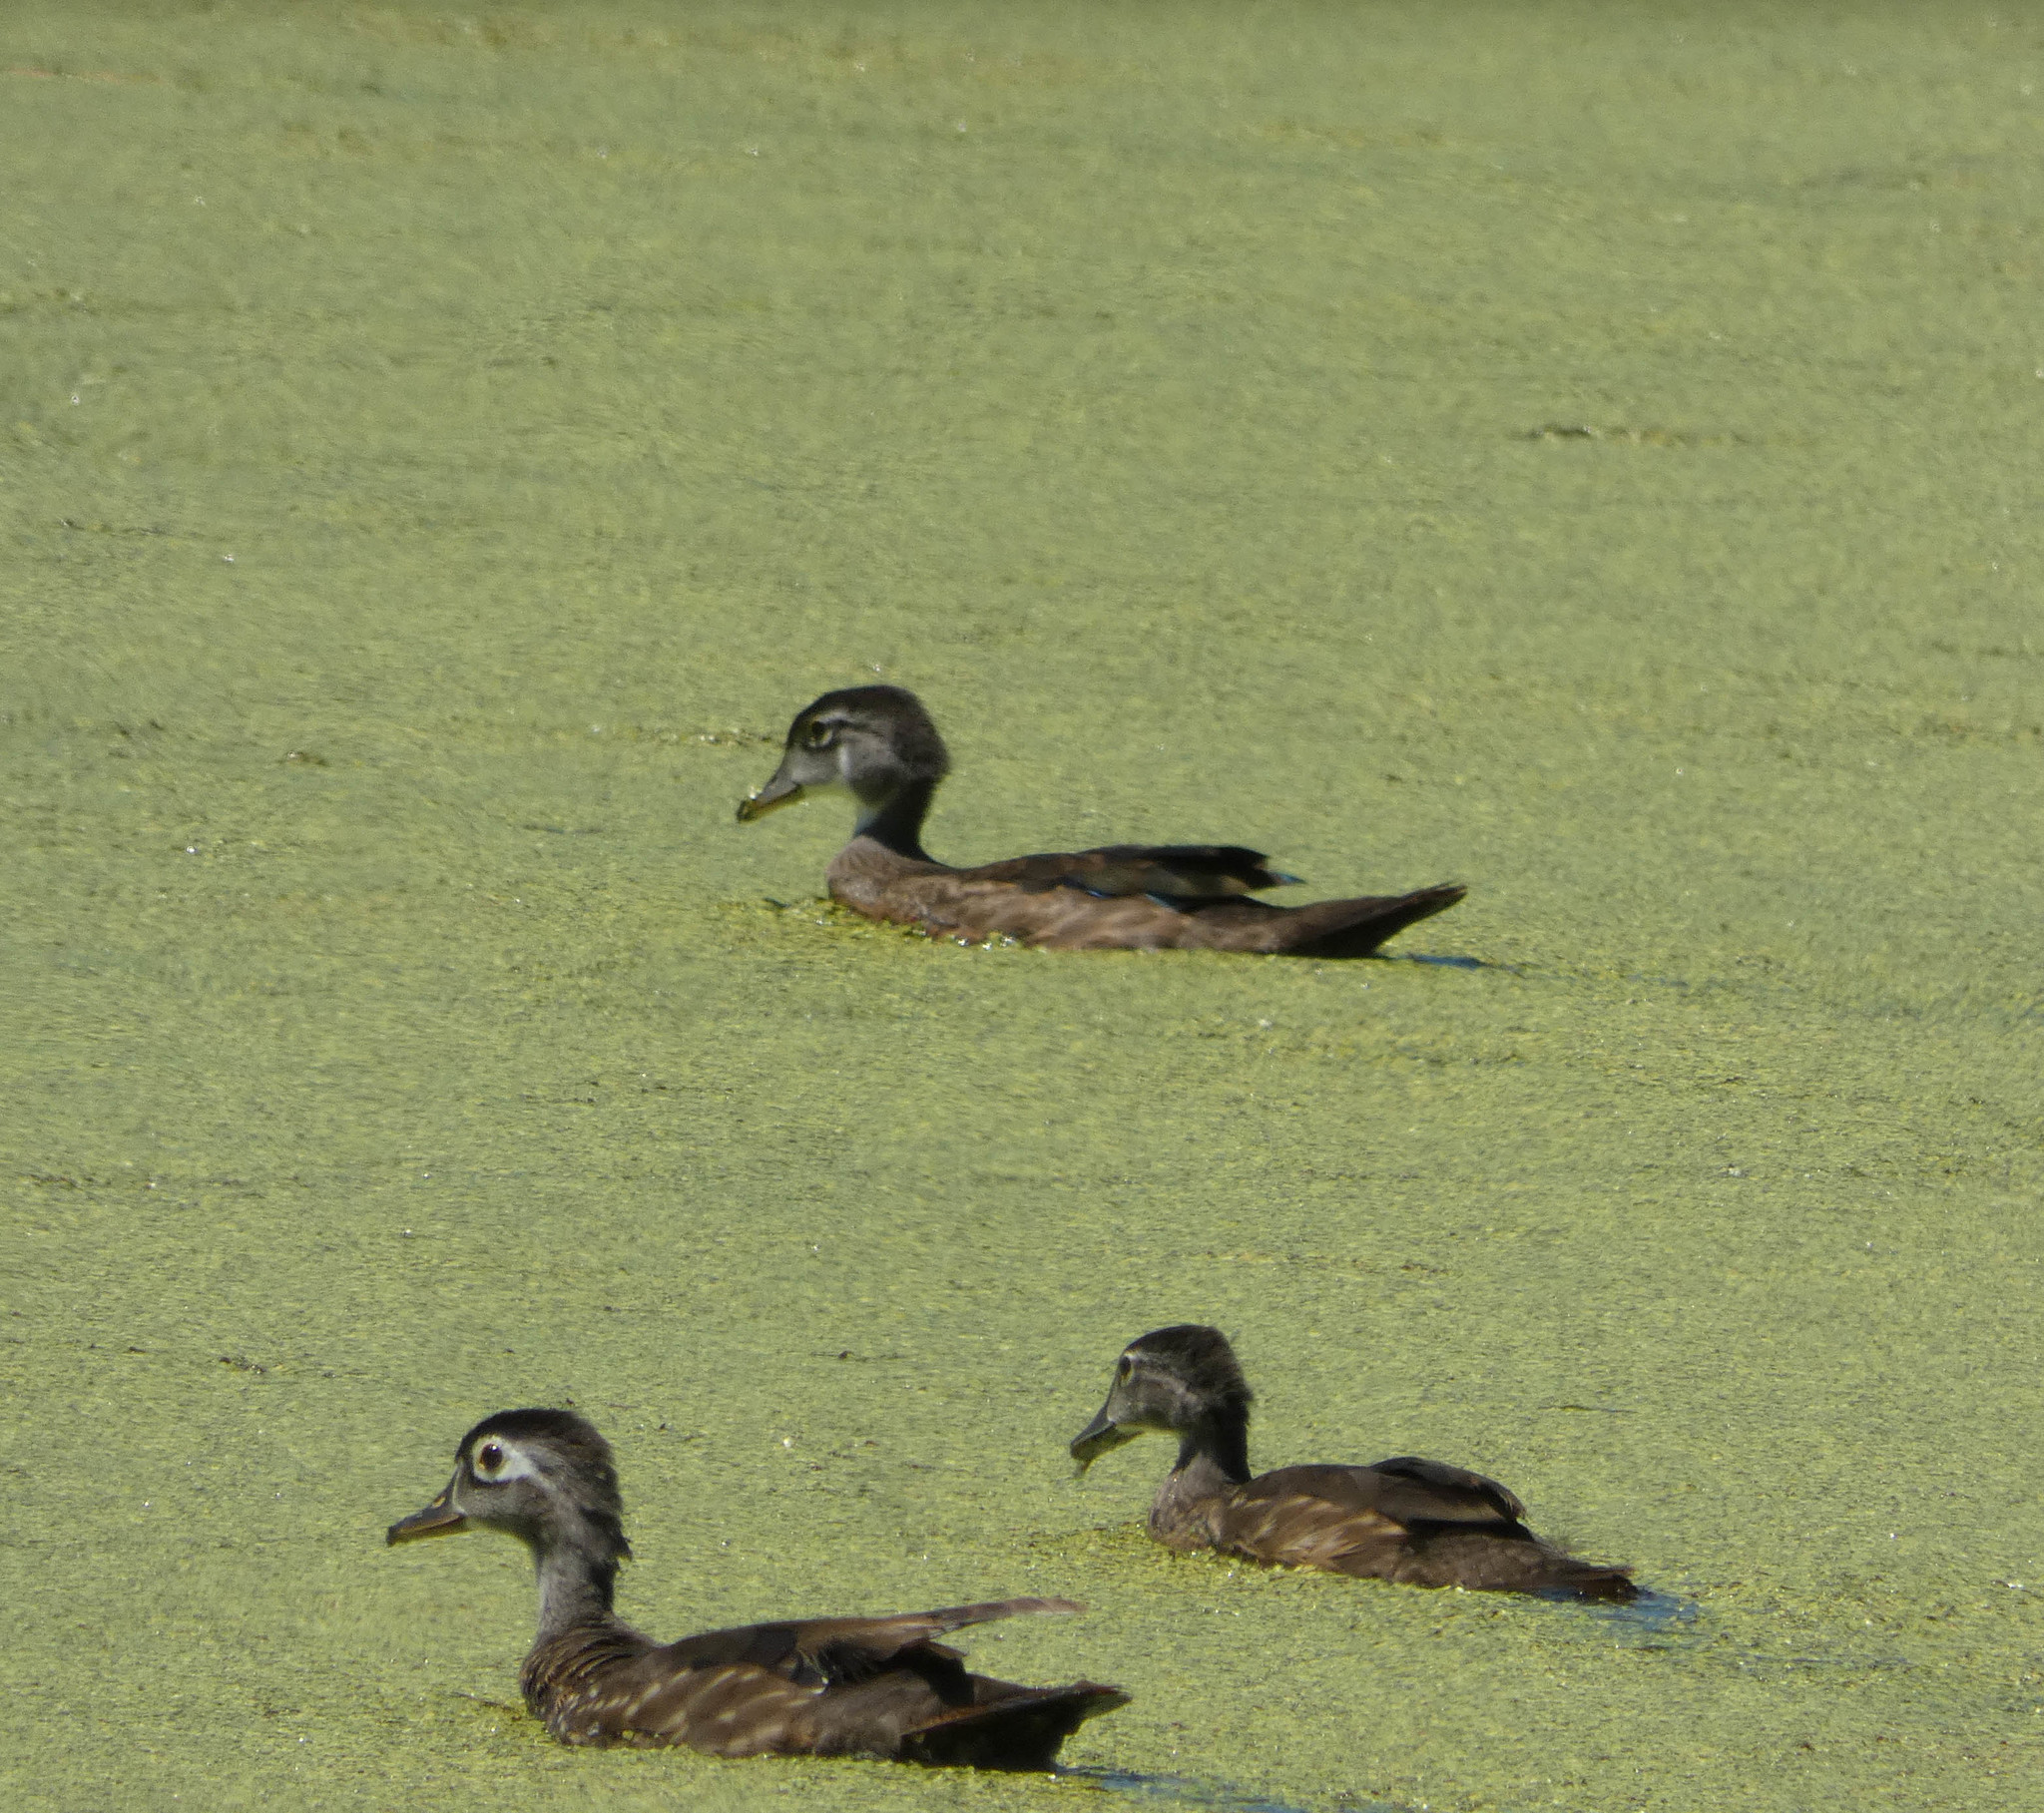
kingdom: Animalia
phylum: Chordata
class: Aves
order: Anseriformes
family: Anatidae
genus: Aix
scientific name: Aix sponsa
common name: Wood duck
